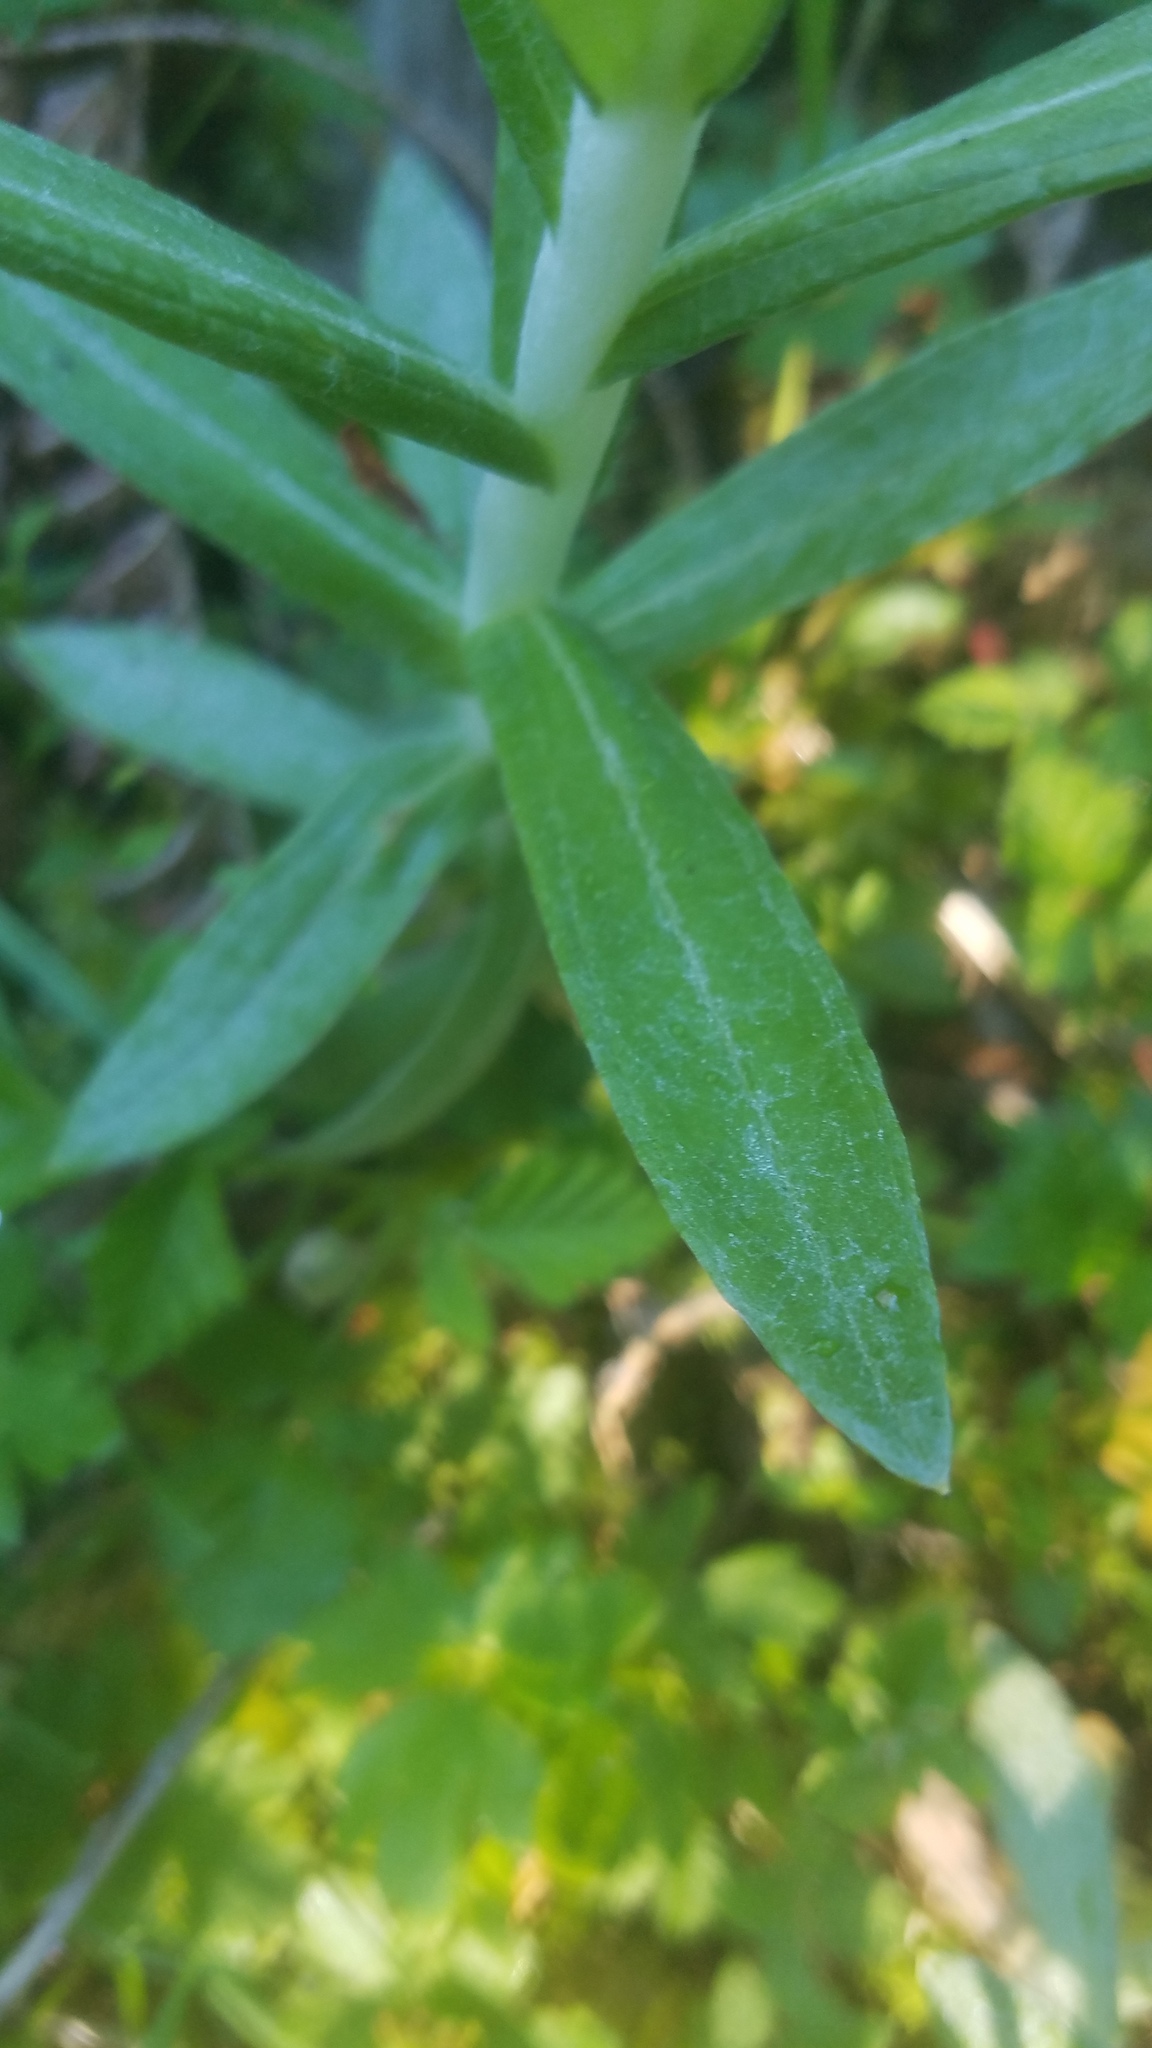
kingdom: Plantae
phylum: Tracheophyta
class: Magnoliopsida
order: Asterales
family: Asteraceae
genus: Anaphalis
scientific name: Anaphalis margaritacea
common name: Pearly everlasting
